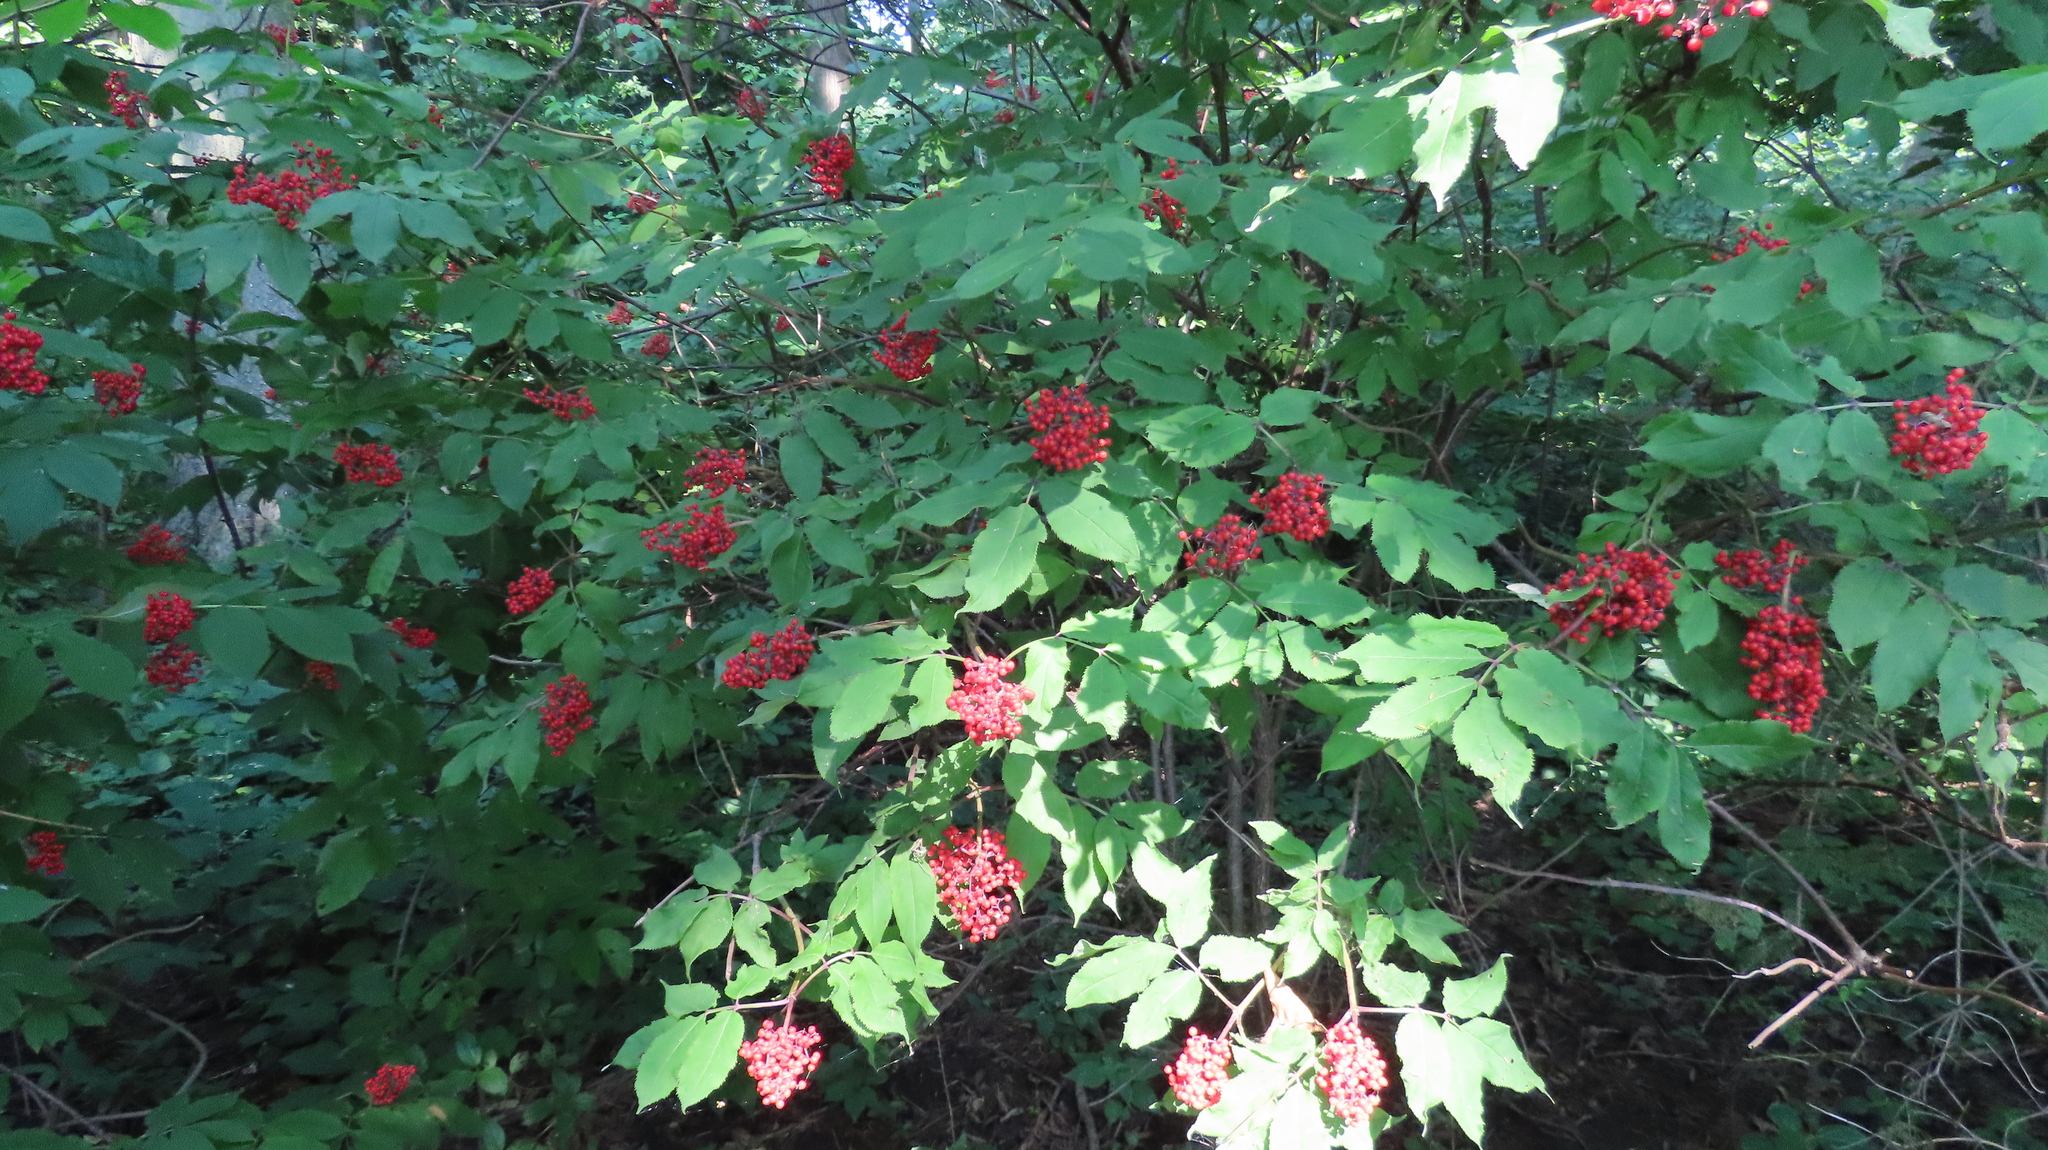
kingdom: Plantae
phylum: Tracheophyta
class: Magnoliopsida
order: Dipsacales
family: Viburnaceae
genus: Sambucus
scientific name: Sambucus racemosa
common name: Red-berried elder
